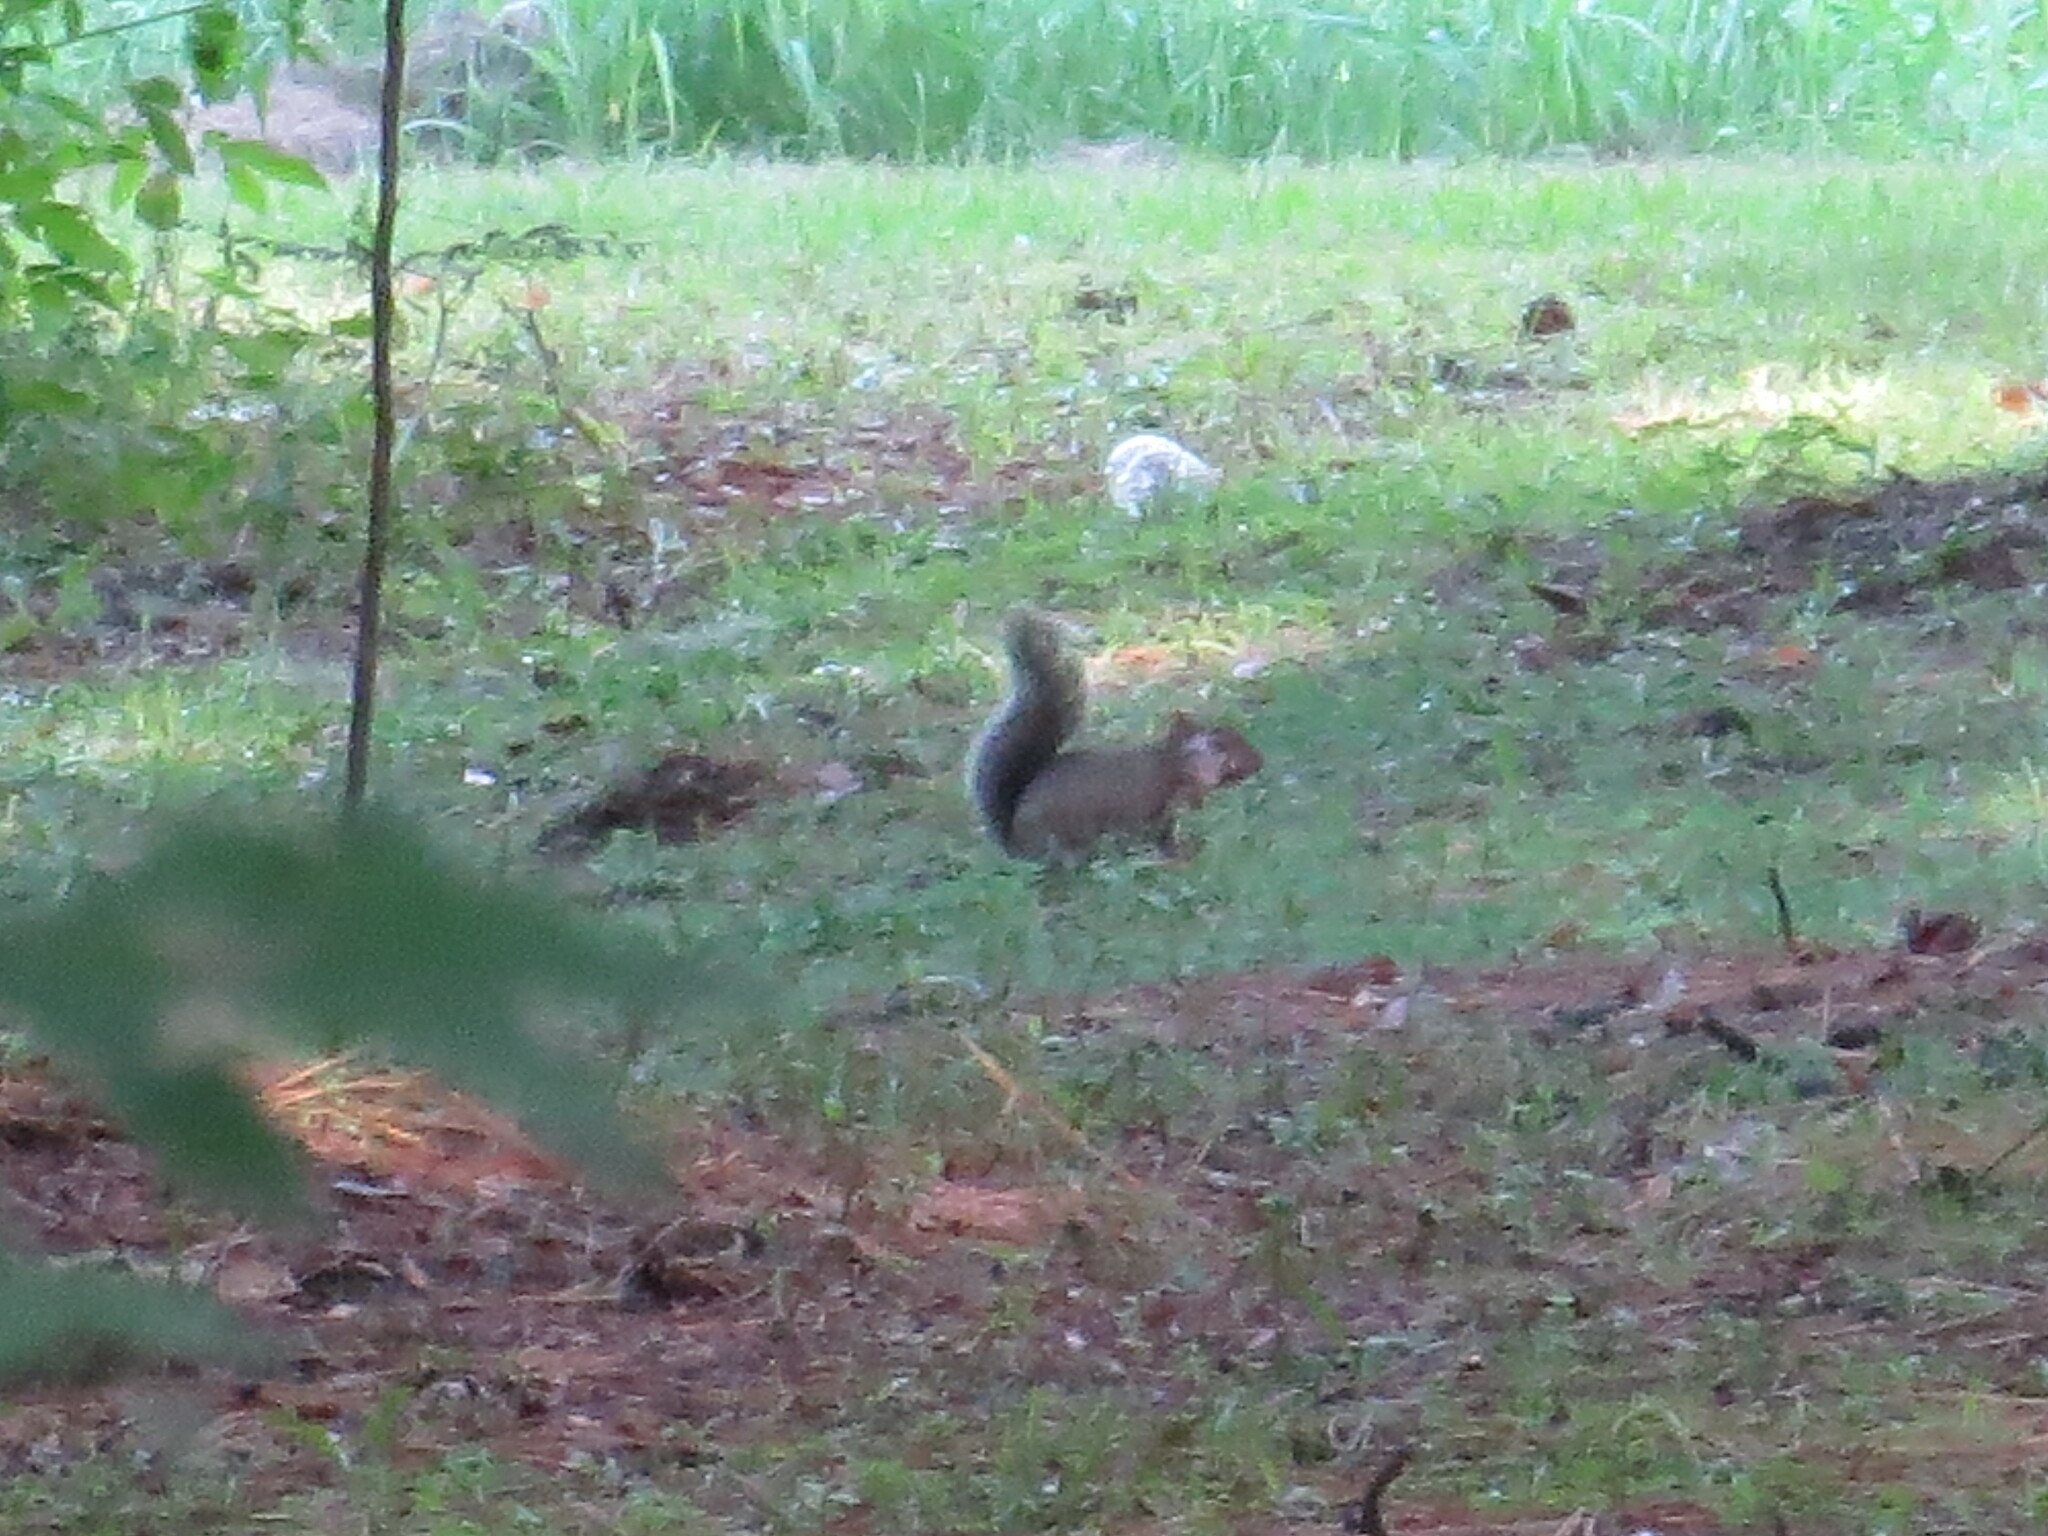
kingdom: Animalia
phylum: Chordata
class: Mammalia
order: Rodentia
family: Sciuridae
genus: Sciurus
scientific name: Sciurus carolinensis
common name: Eastern gray squirrel
